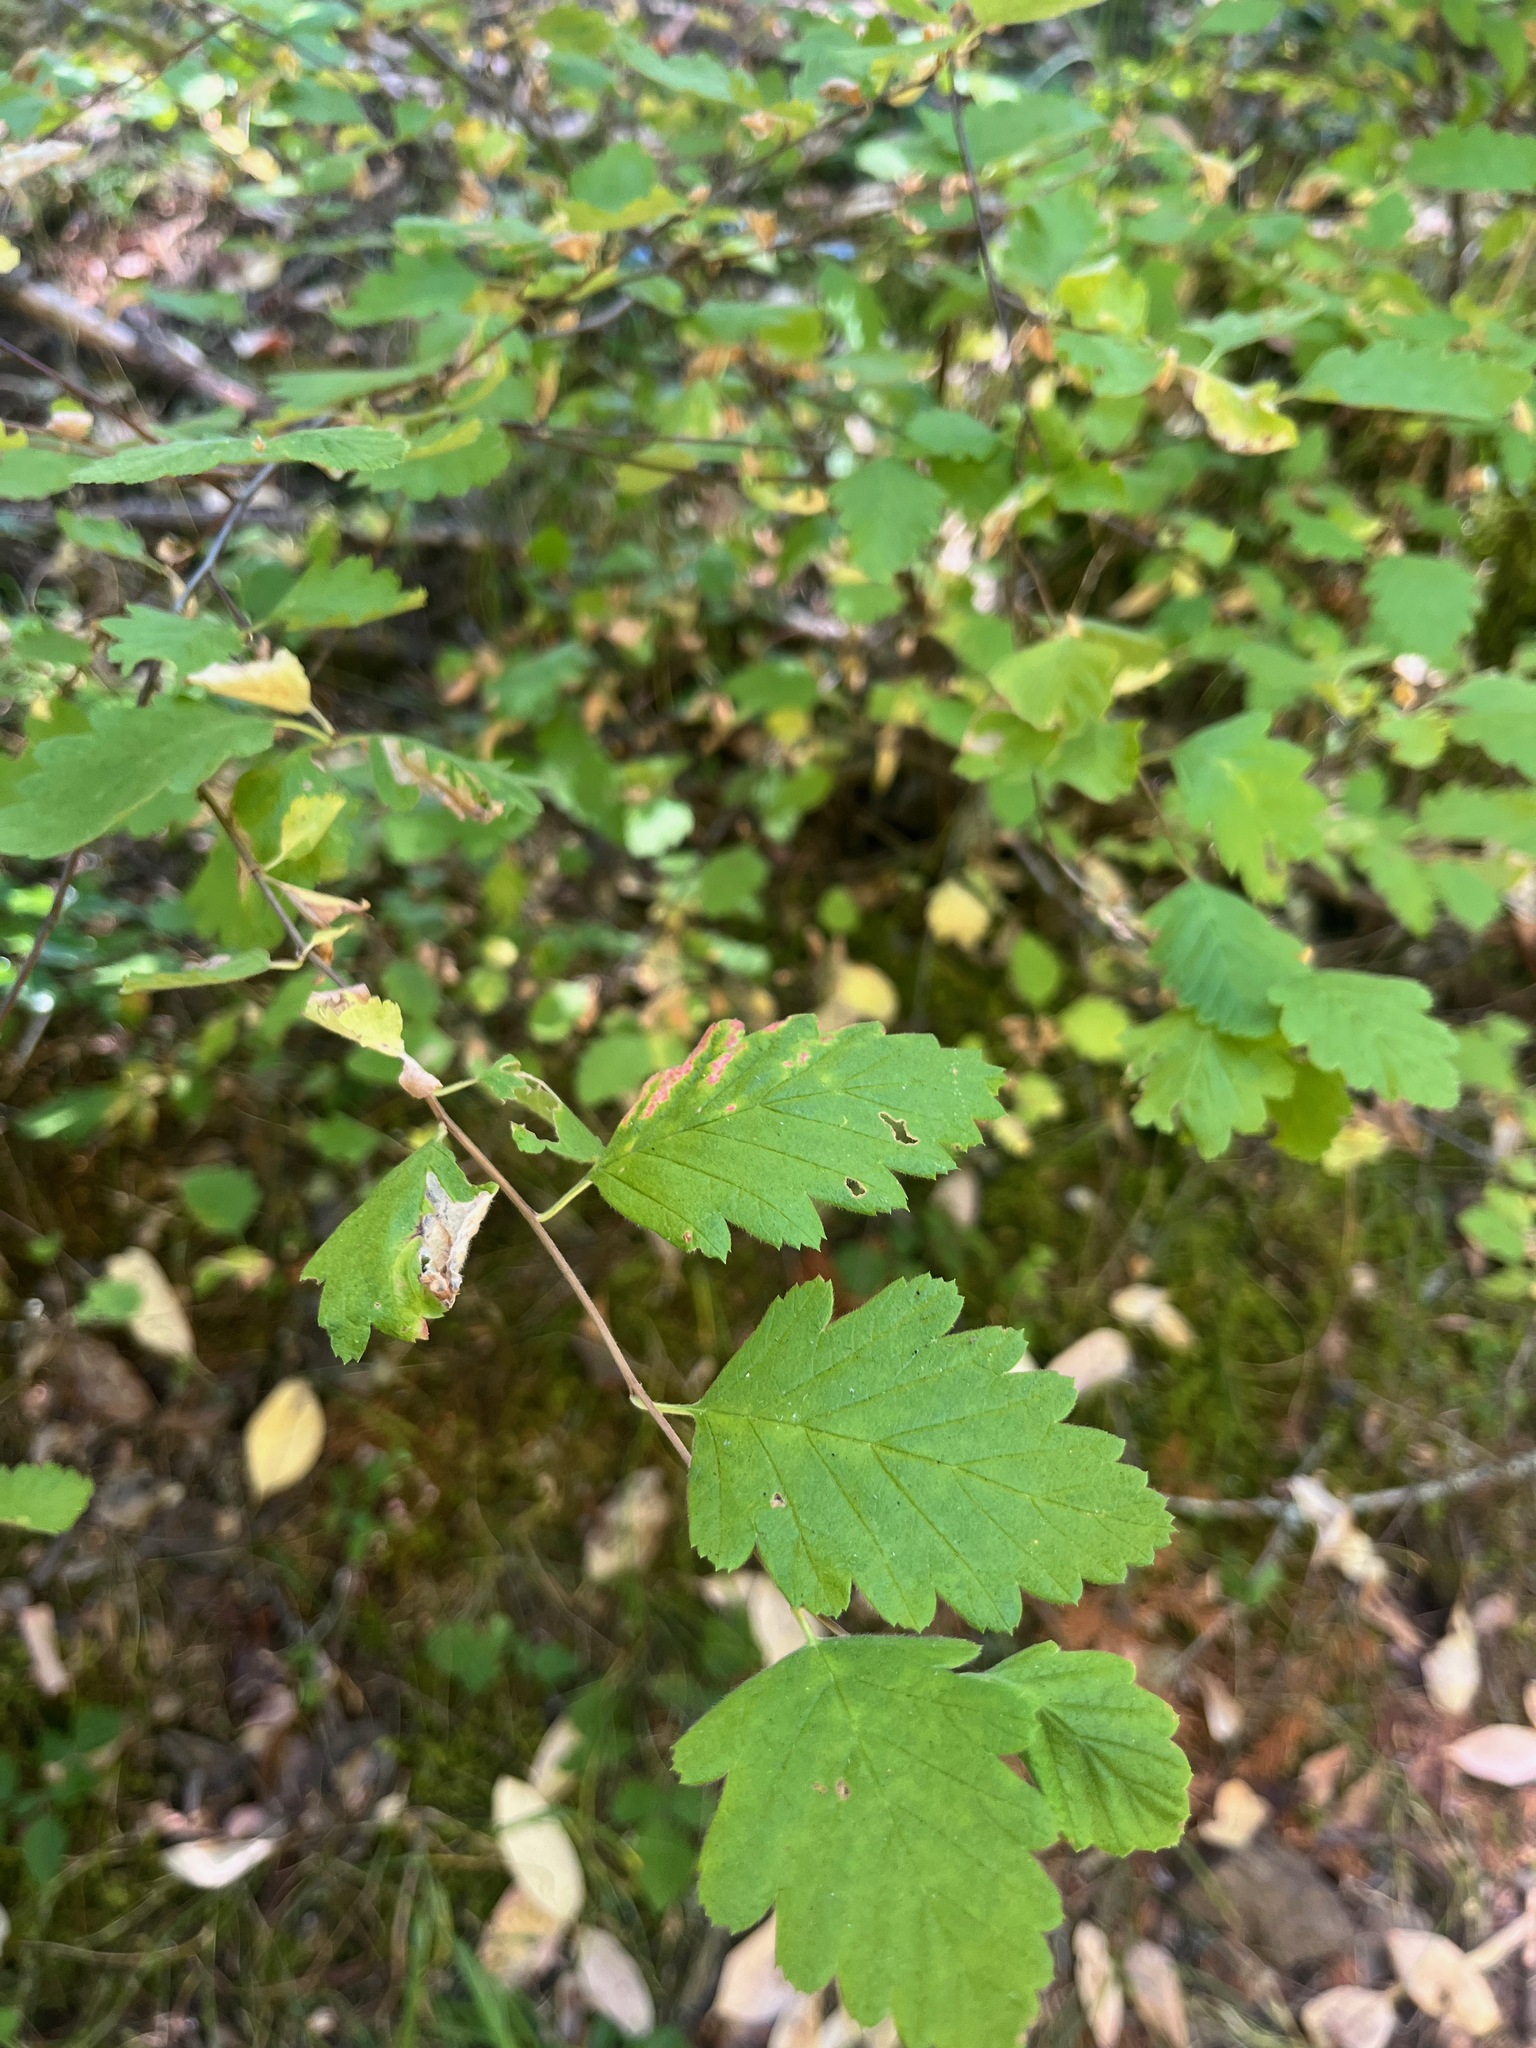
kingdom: Plantae
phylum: Tracheophyta
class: Magnoliopsida
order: Rosales
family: Rosaceae
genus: Holodiscus
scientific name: Holodiscus discolor
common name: Oceanspray
